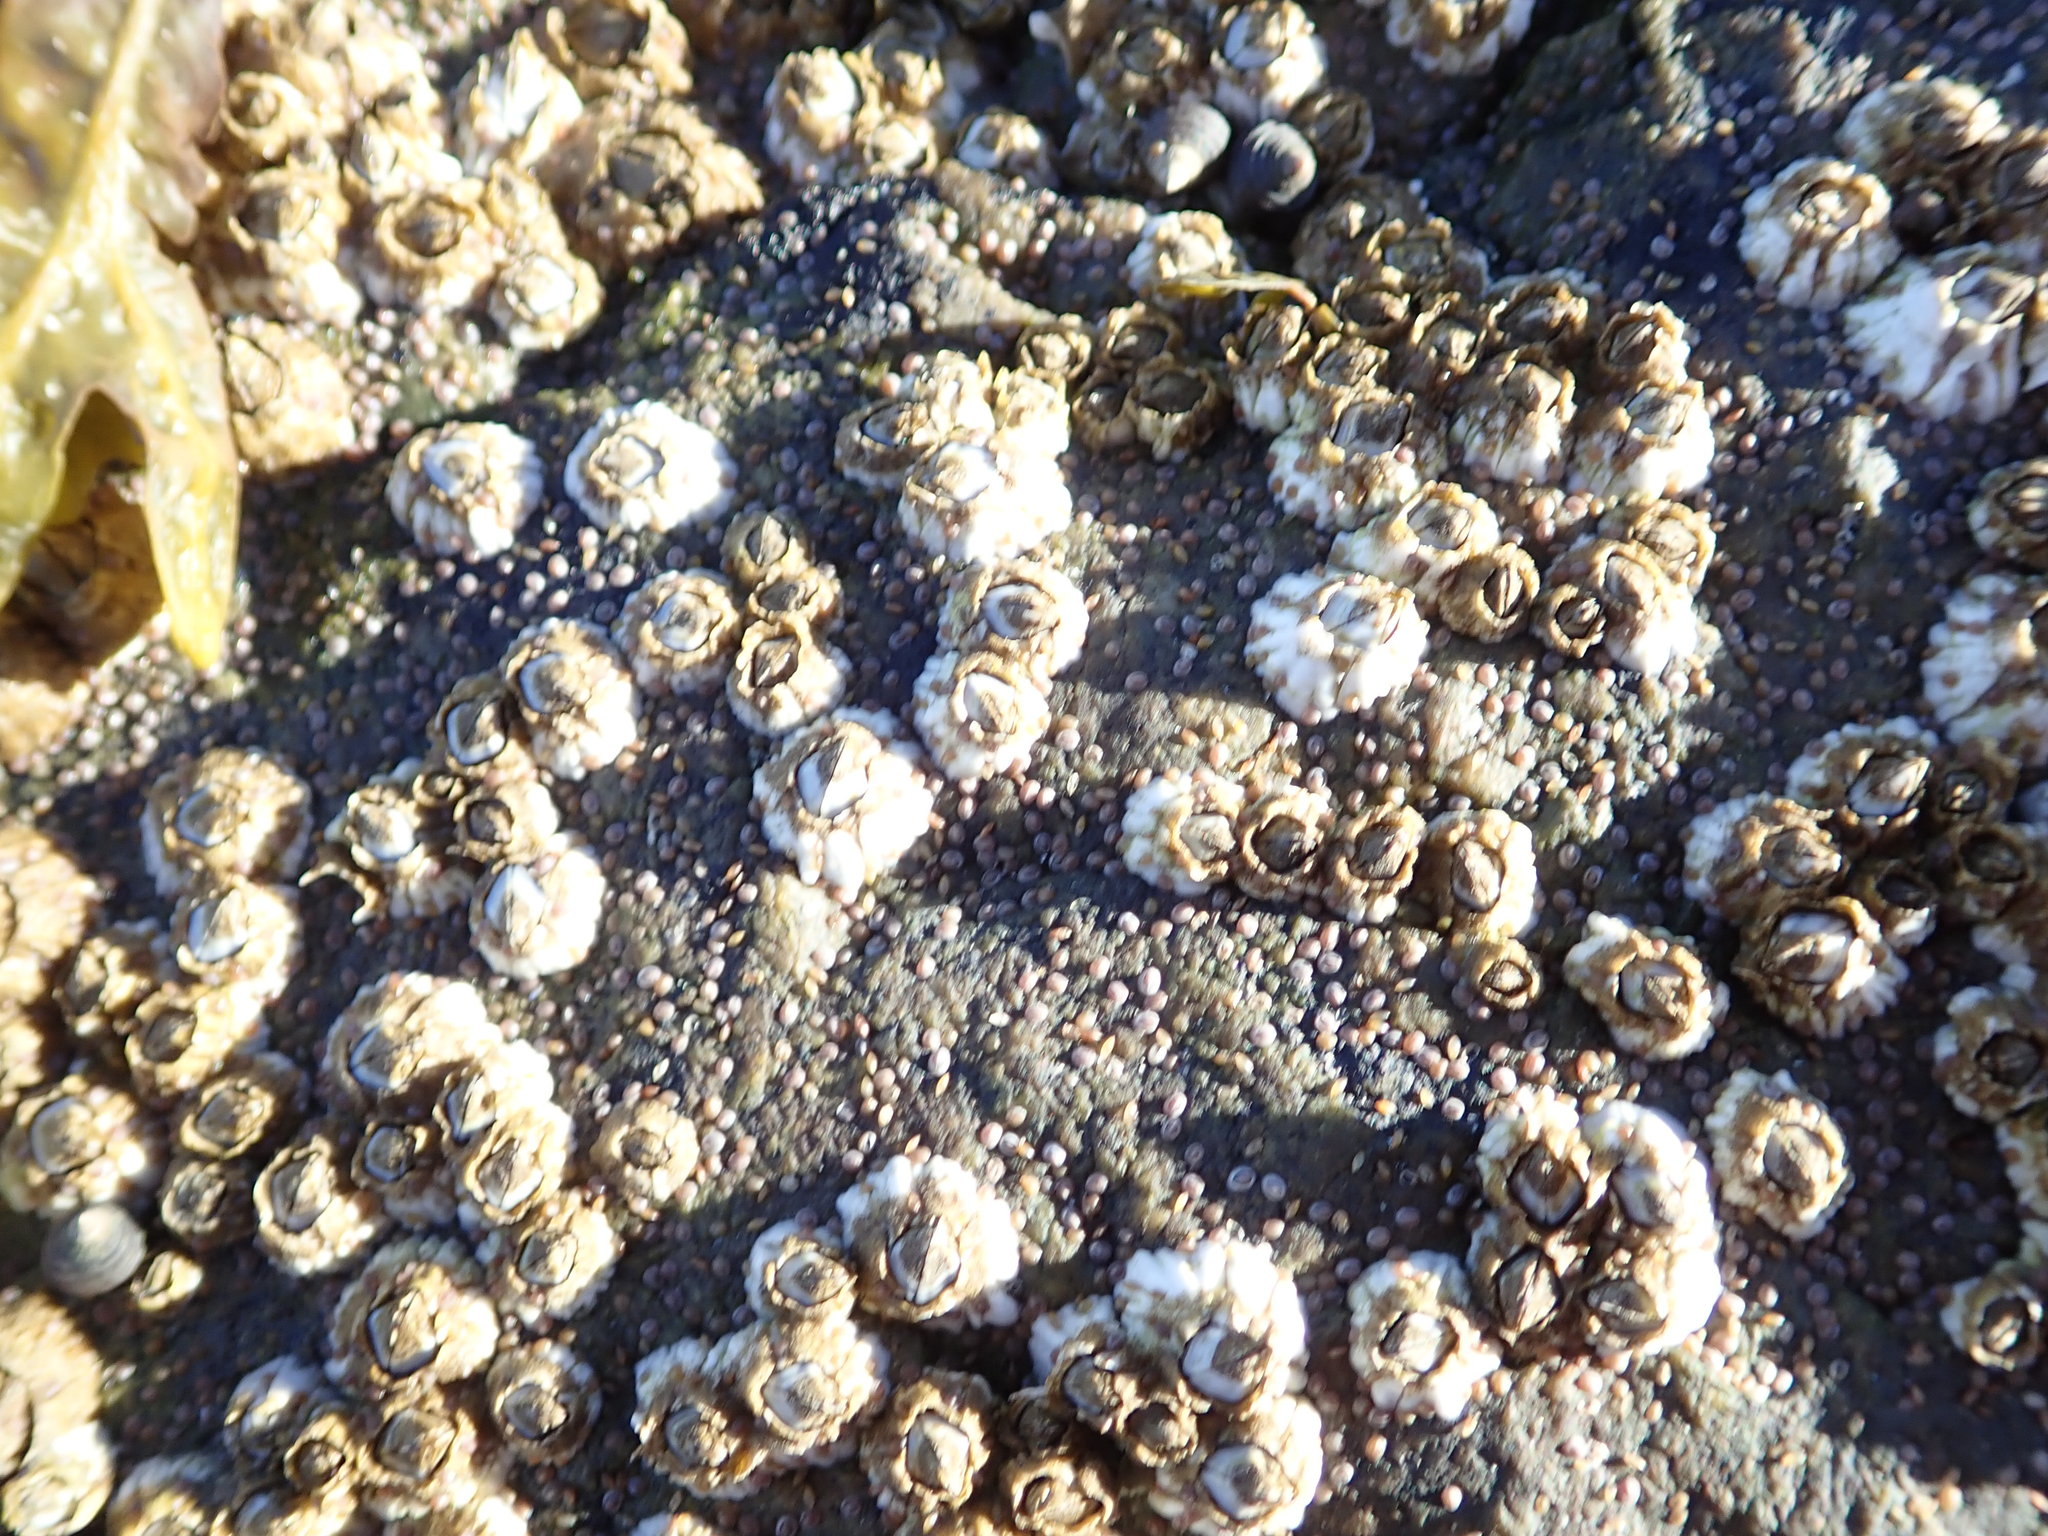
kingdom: Animalia
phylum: Arthropoda
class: Maxillopoda
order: Sessilia
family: Archaeobalanidae
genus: Semibalanus
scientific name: Semibalanus balanoides
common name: Acorn barnacle
